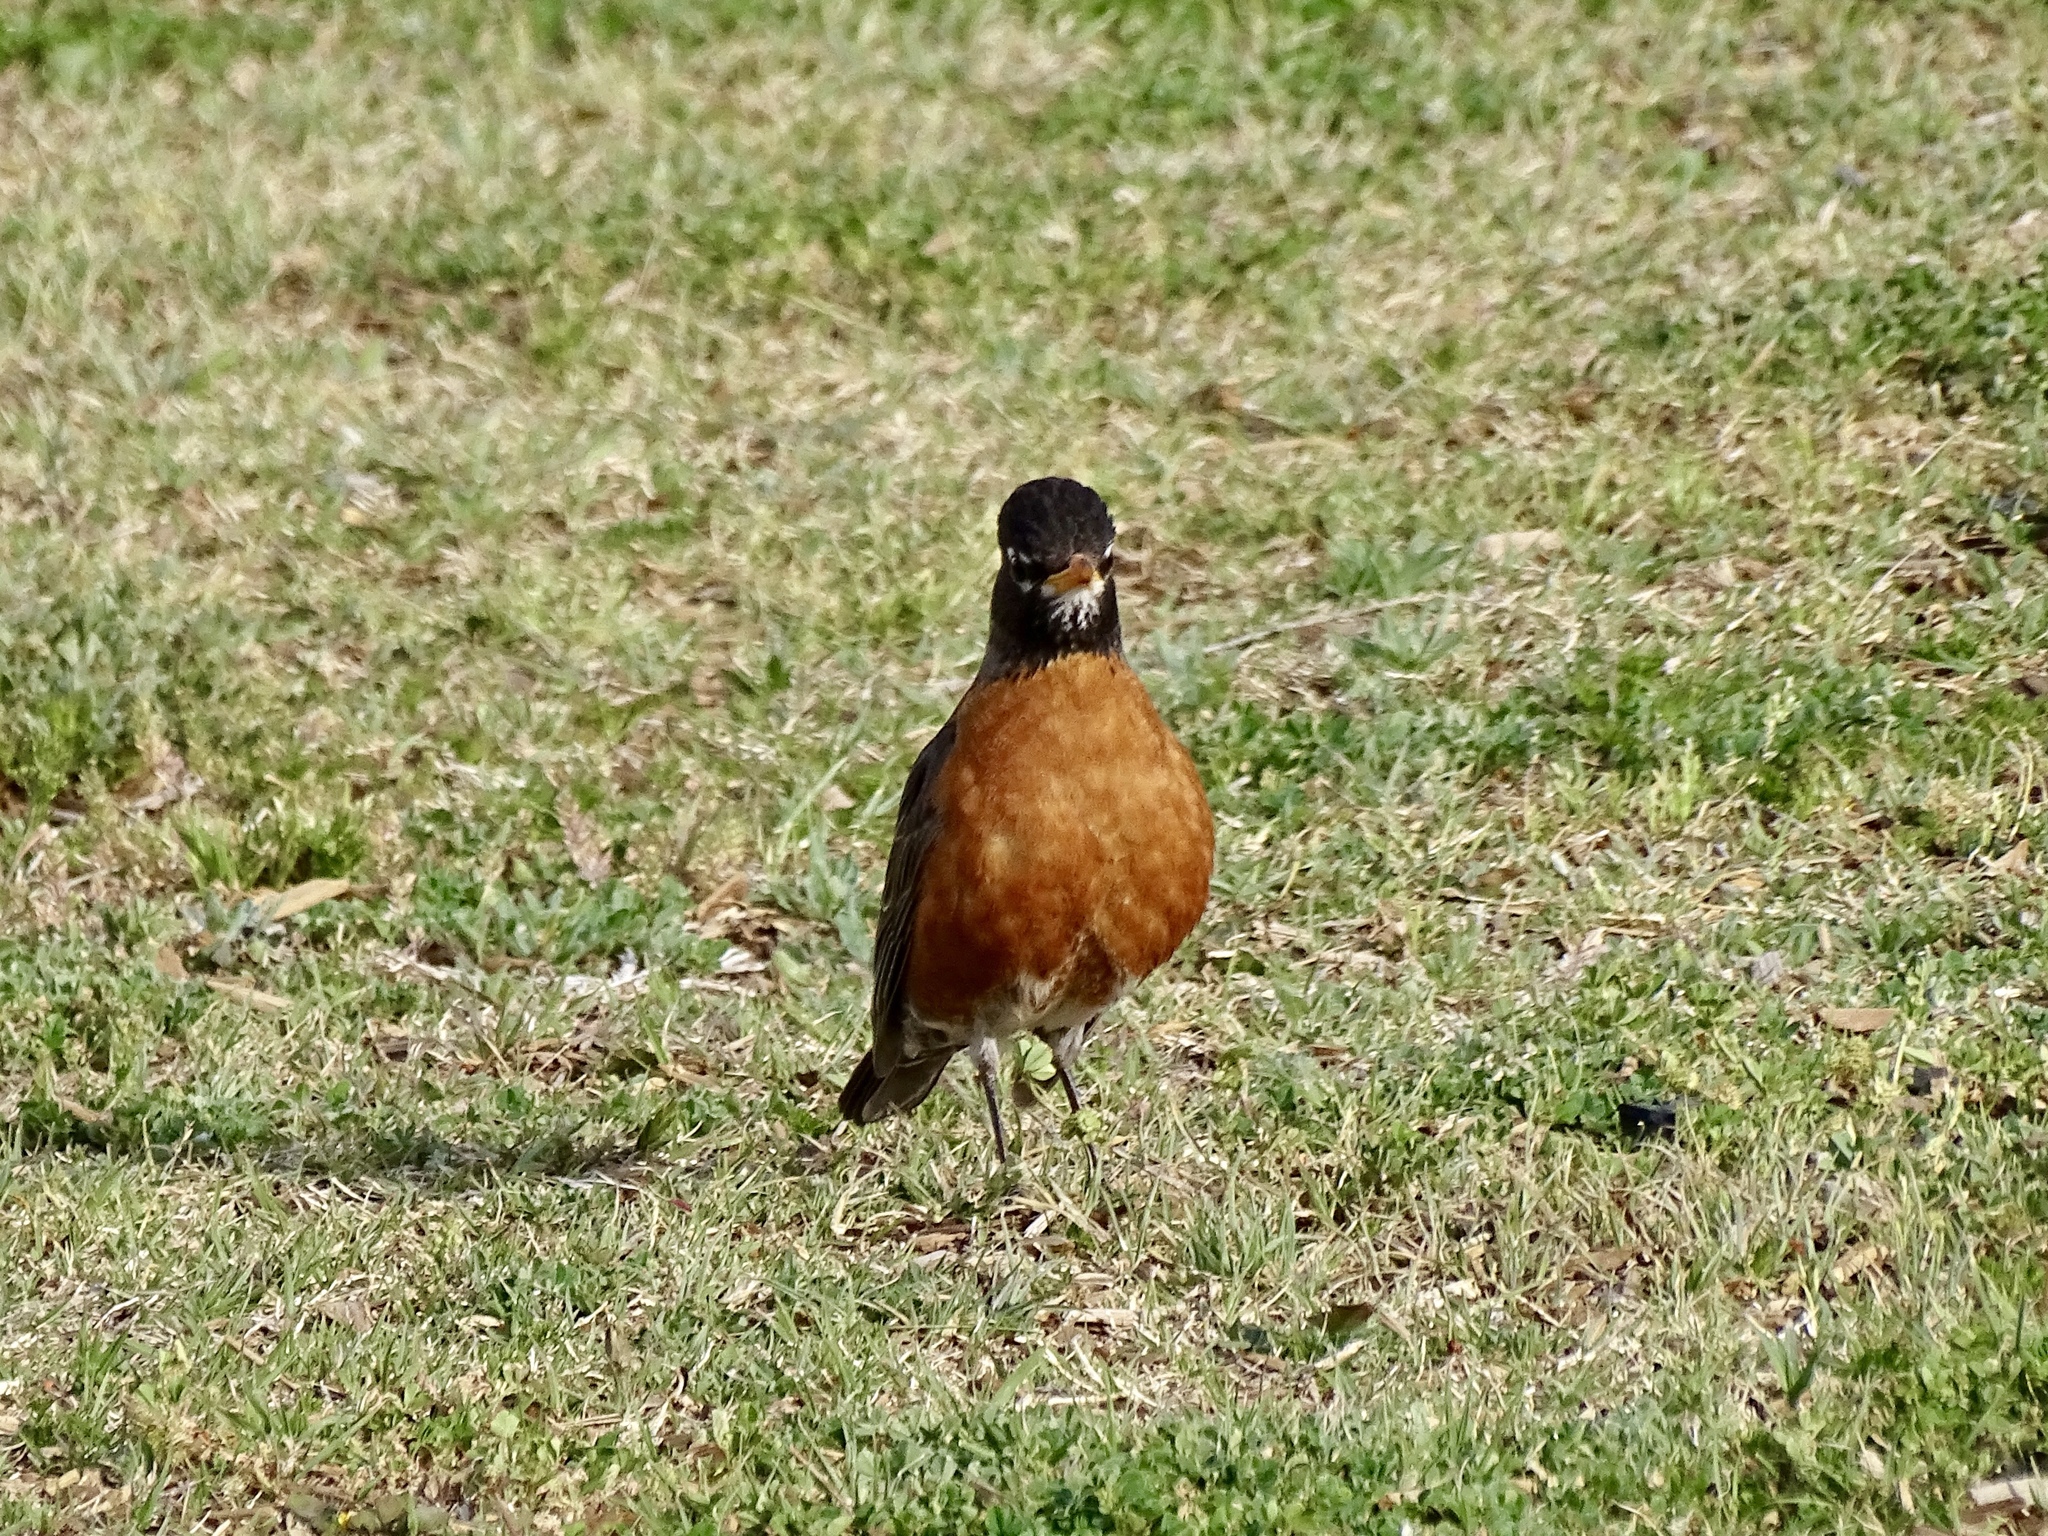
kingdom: Animalia
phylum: Chordata
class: Aves
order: Passeriformes
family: Turdidae
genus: Turdus
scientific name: Turdus migratorius
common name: American robin
